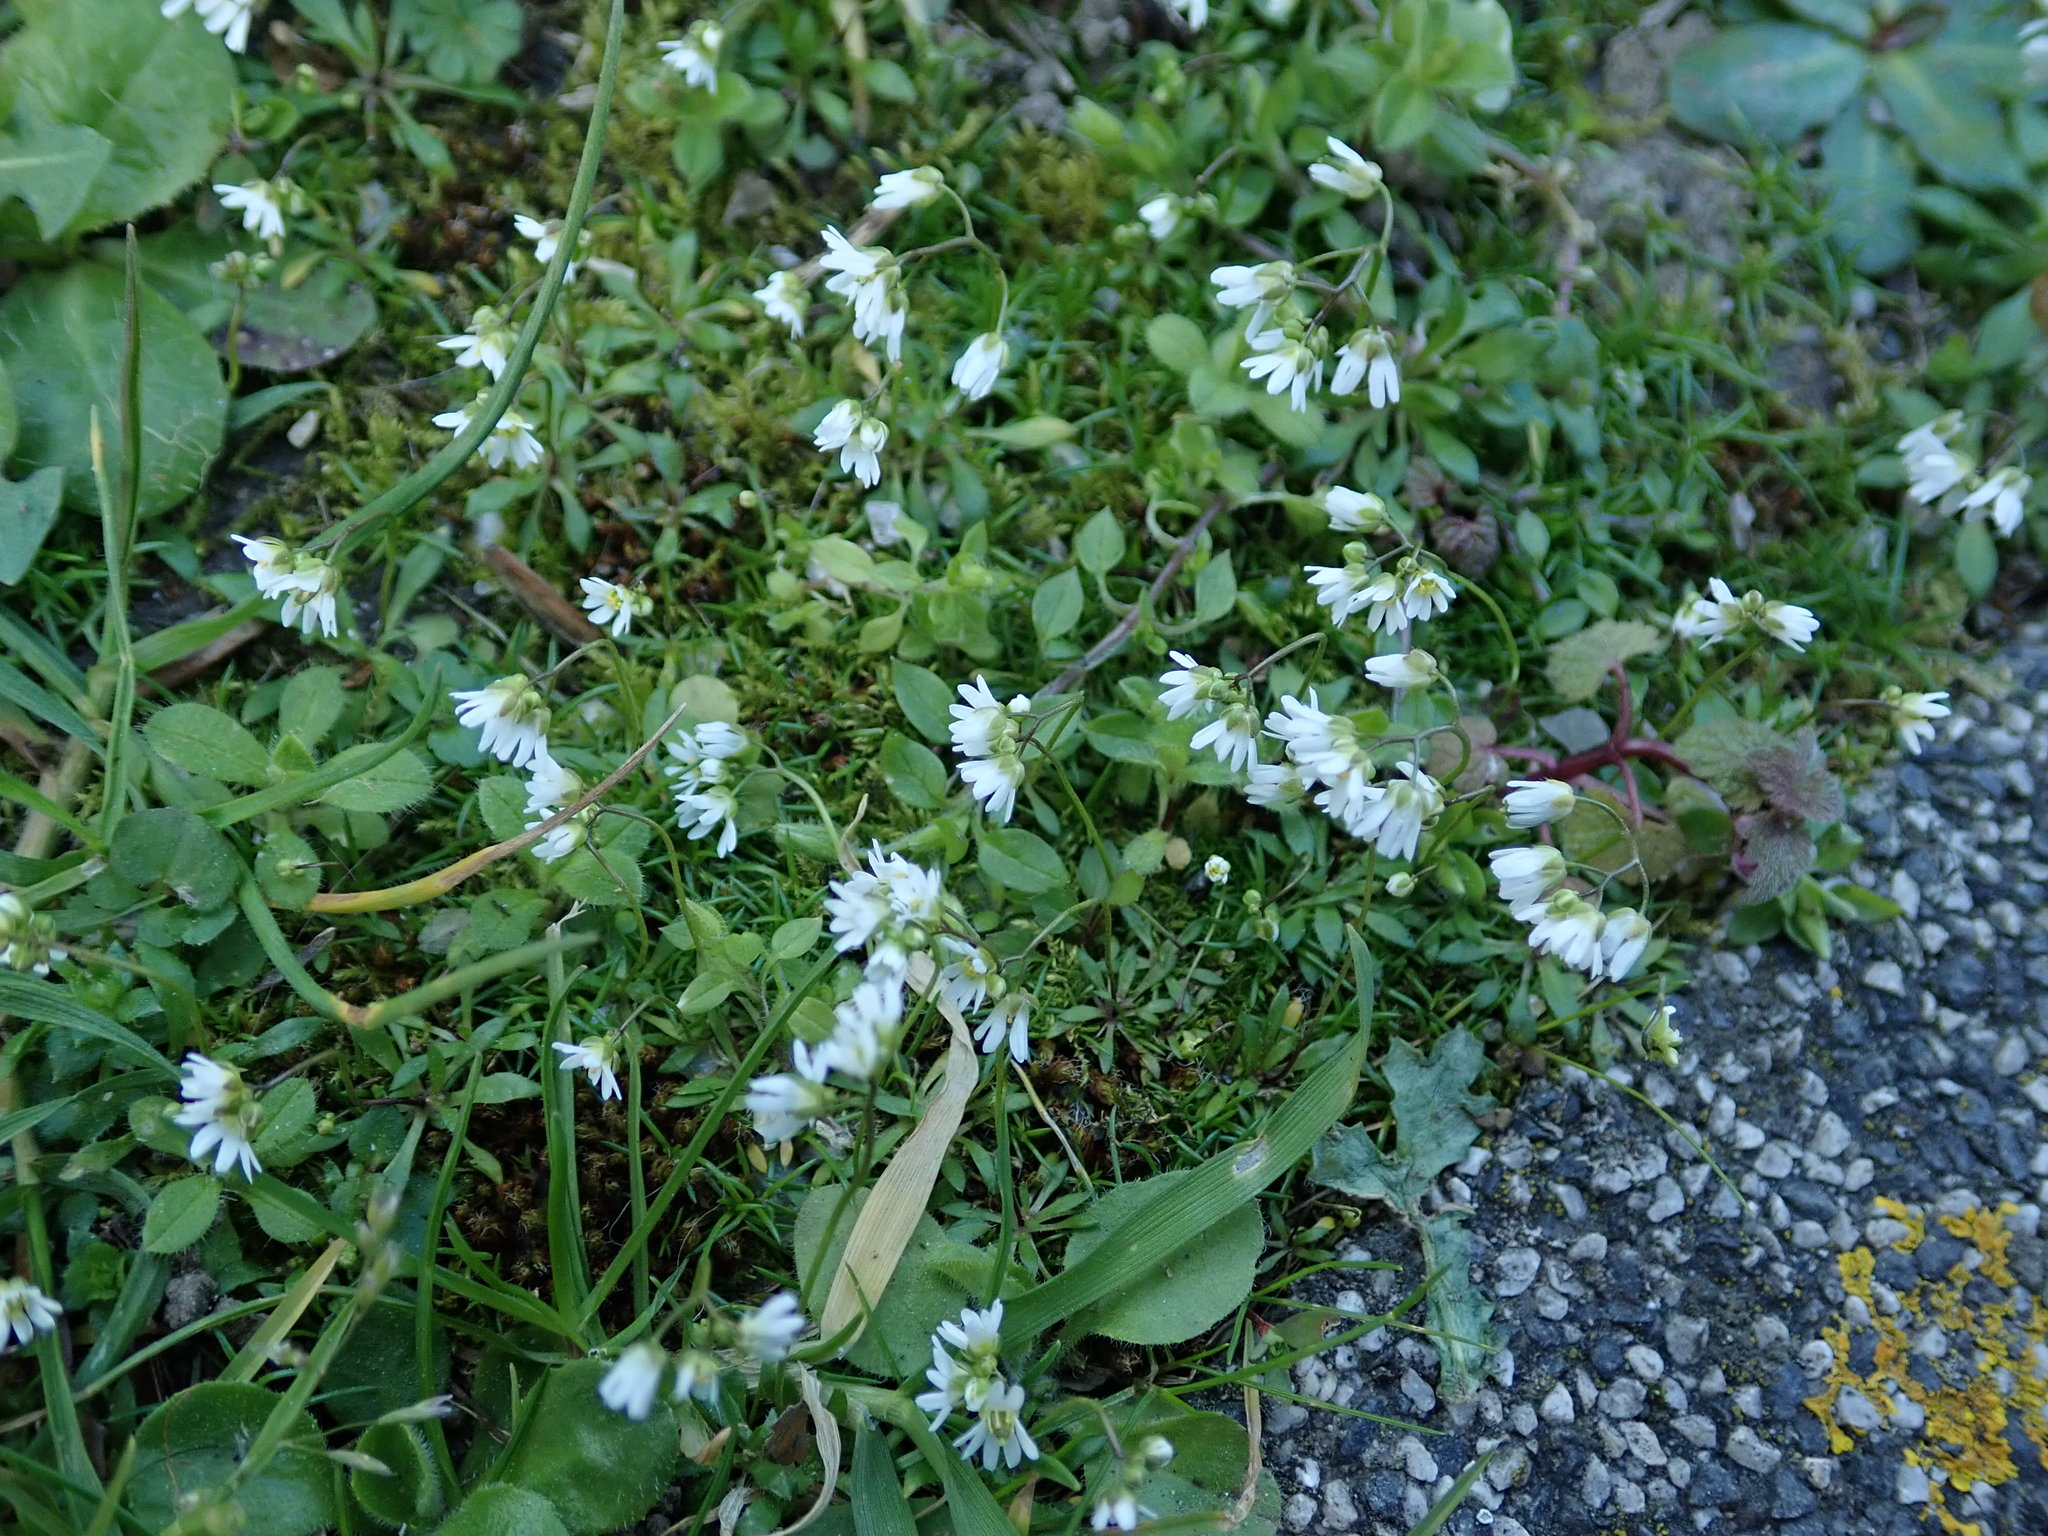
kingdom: Plantae
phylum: Tracheophyta
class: Magnoliopsida
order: Brassicales
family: Brassicaceae
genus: Draba
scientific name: Draba verna
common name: Spring draba
